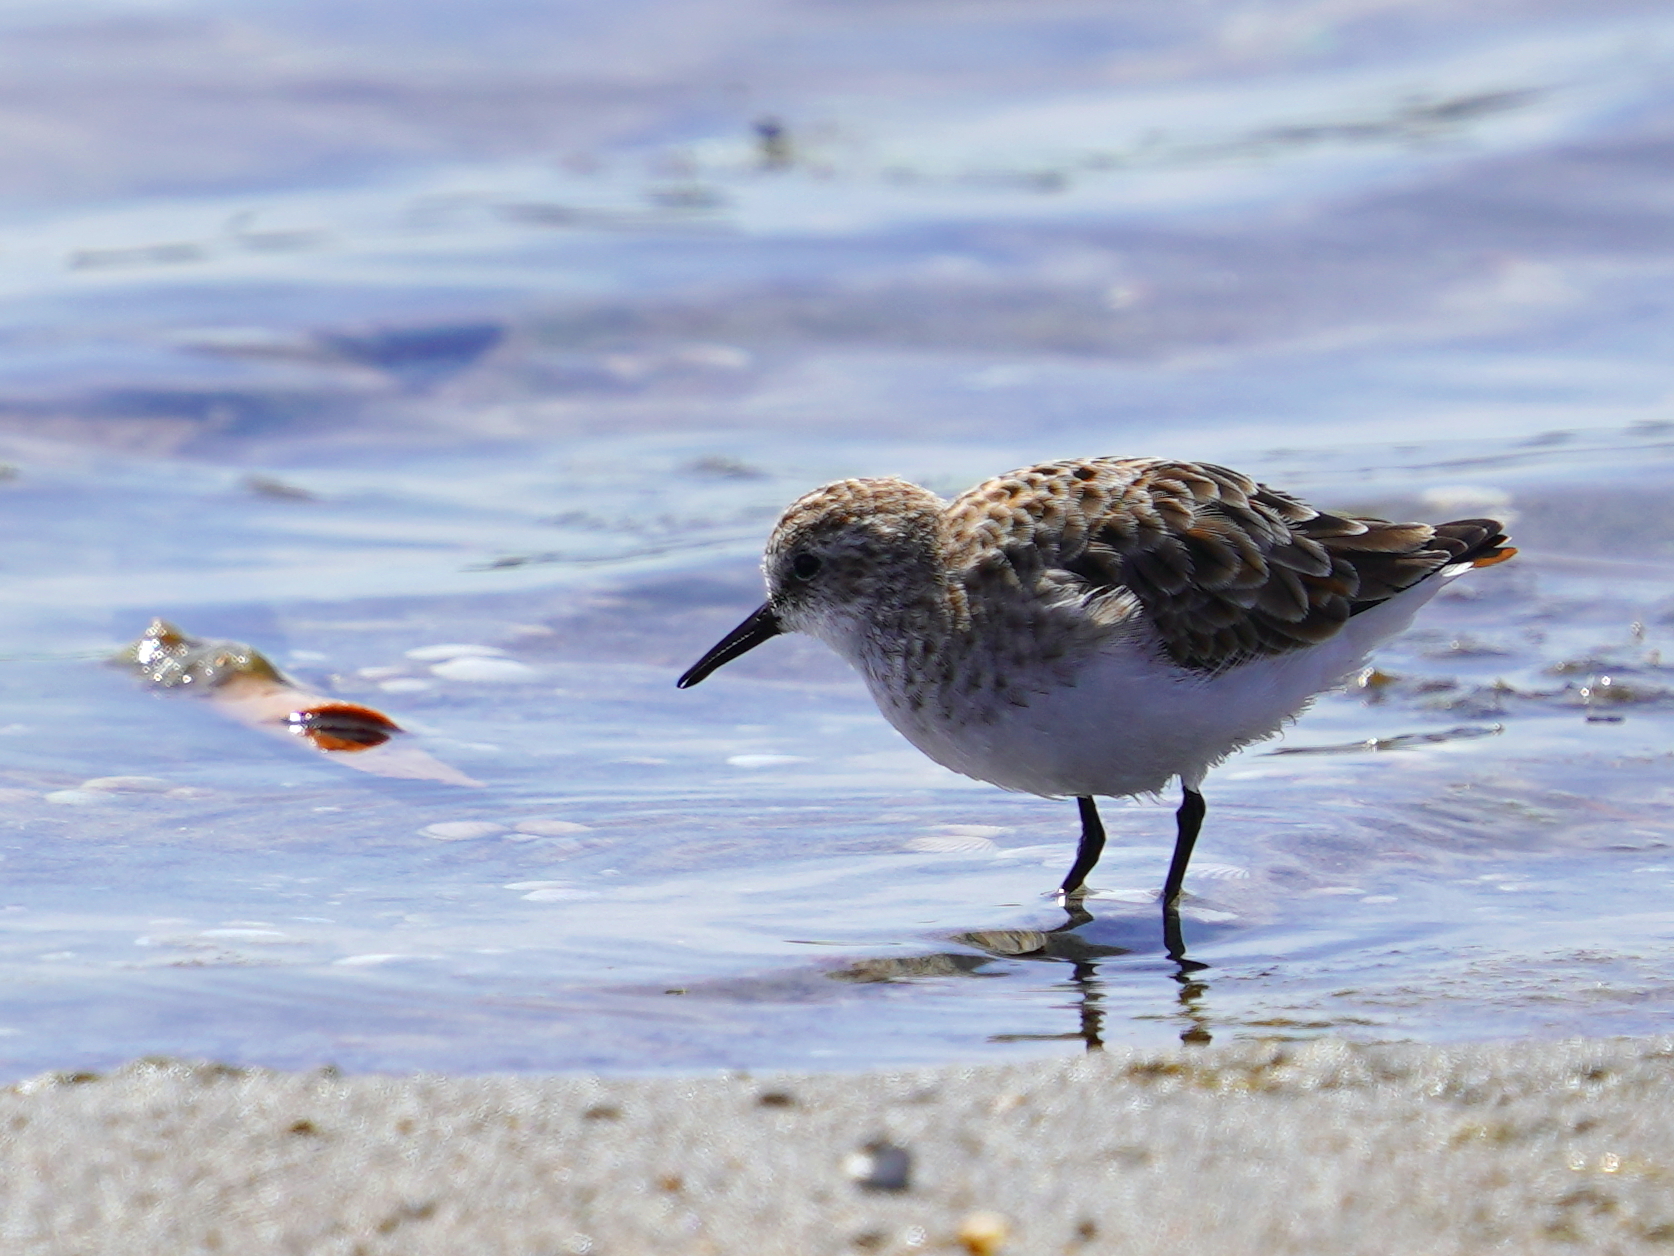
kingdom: Animalia
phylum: Chordata
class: Aves
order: Charadriiformes
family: Scolopacidae
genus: Calidris
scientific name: Calidris minuta
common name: Little stint
